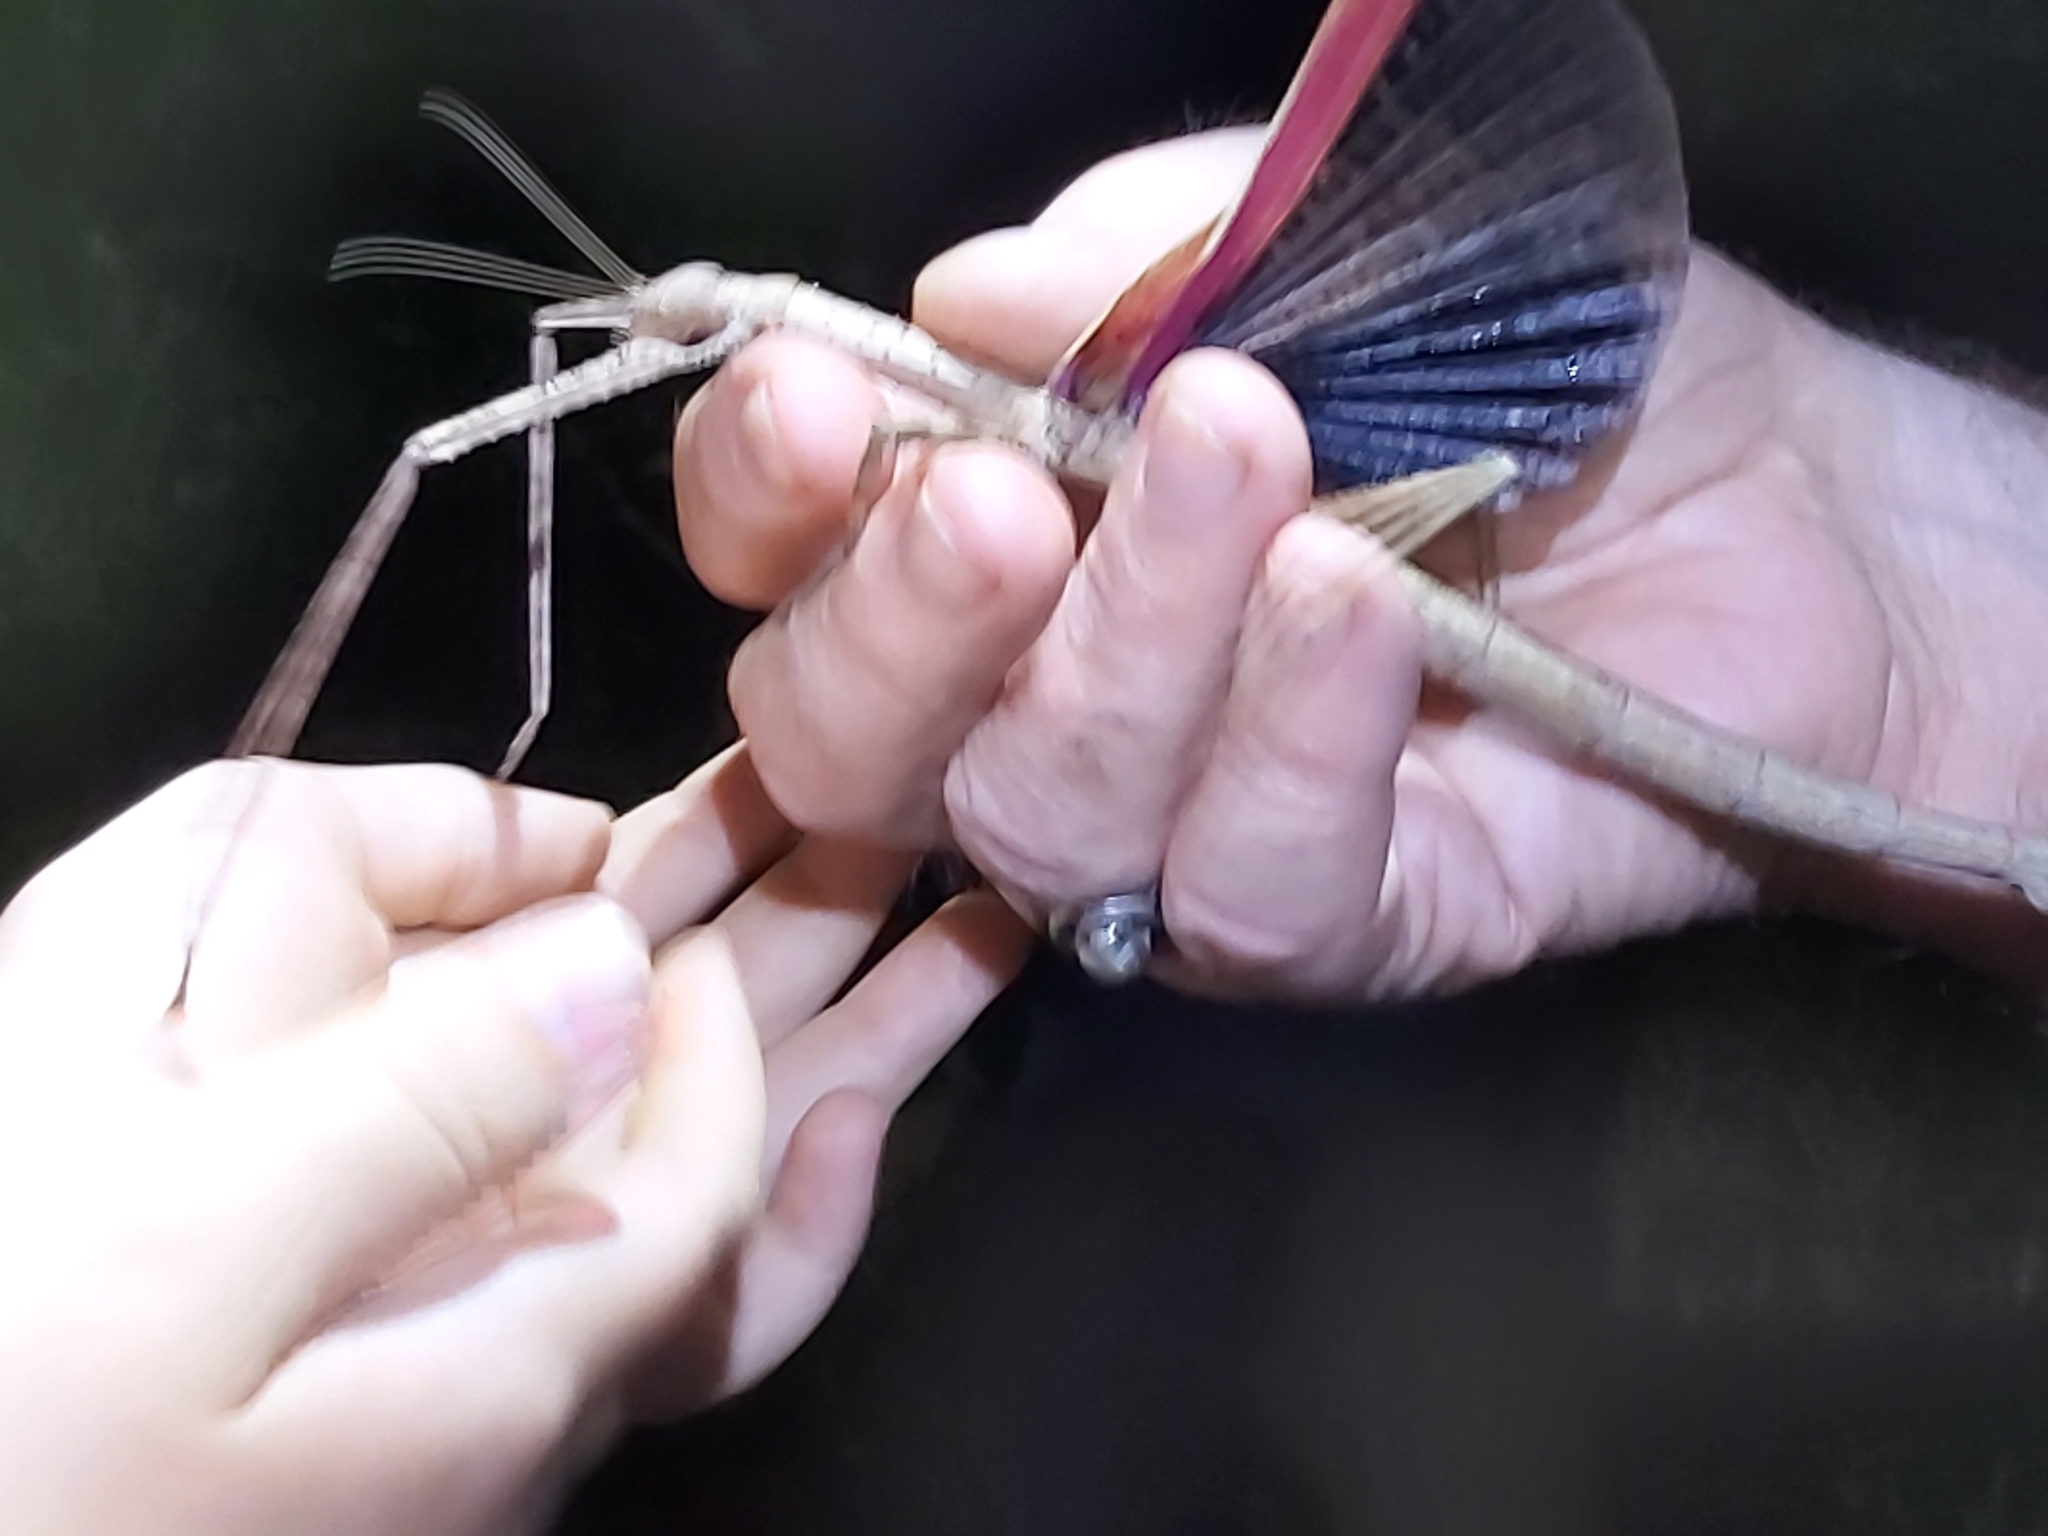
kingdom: Animalia
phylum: Arthropoda
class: Insecta
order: Phasmida
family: Phasmatidae
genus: Anchiale
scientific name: Anchiale briareus
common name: Strong stick insect
